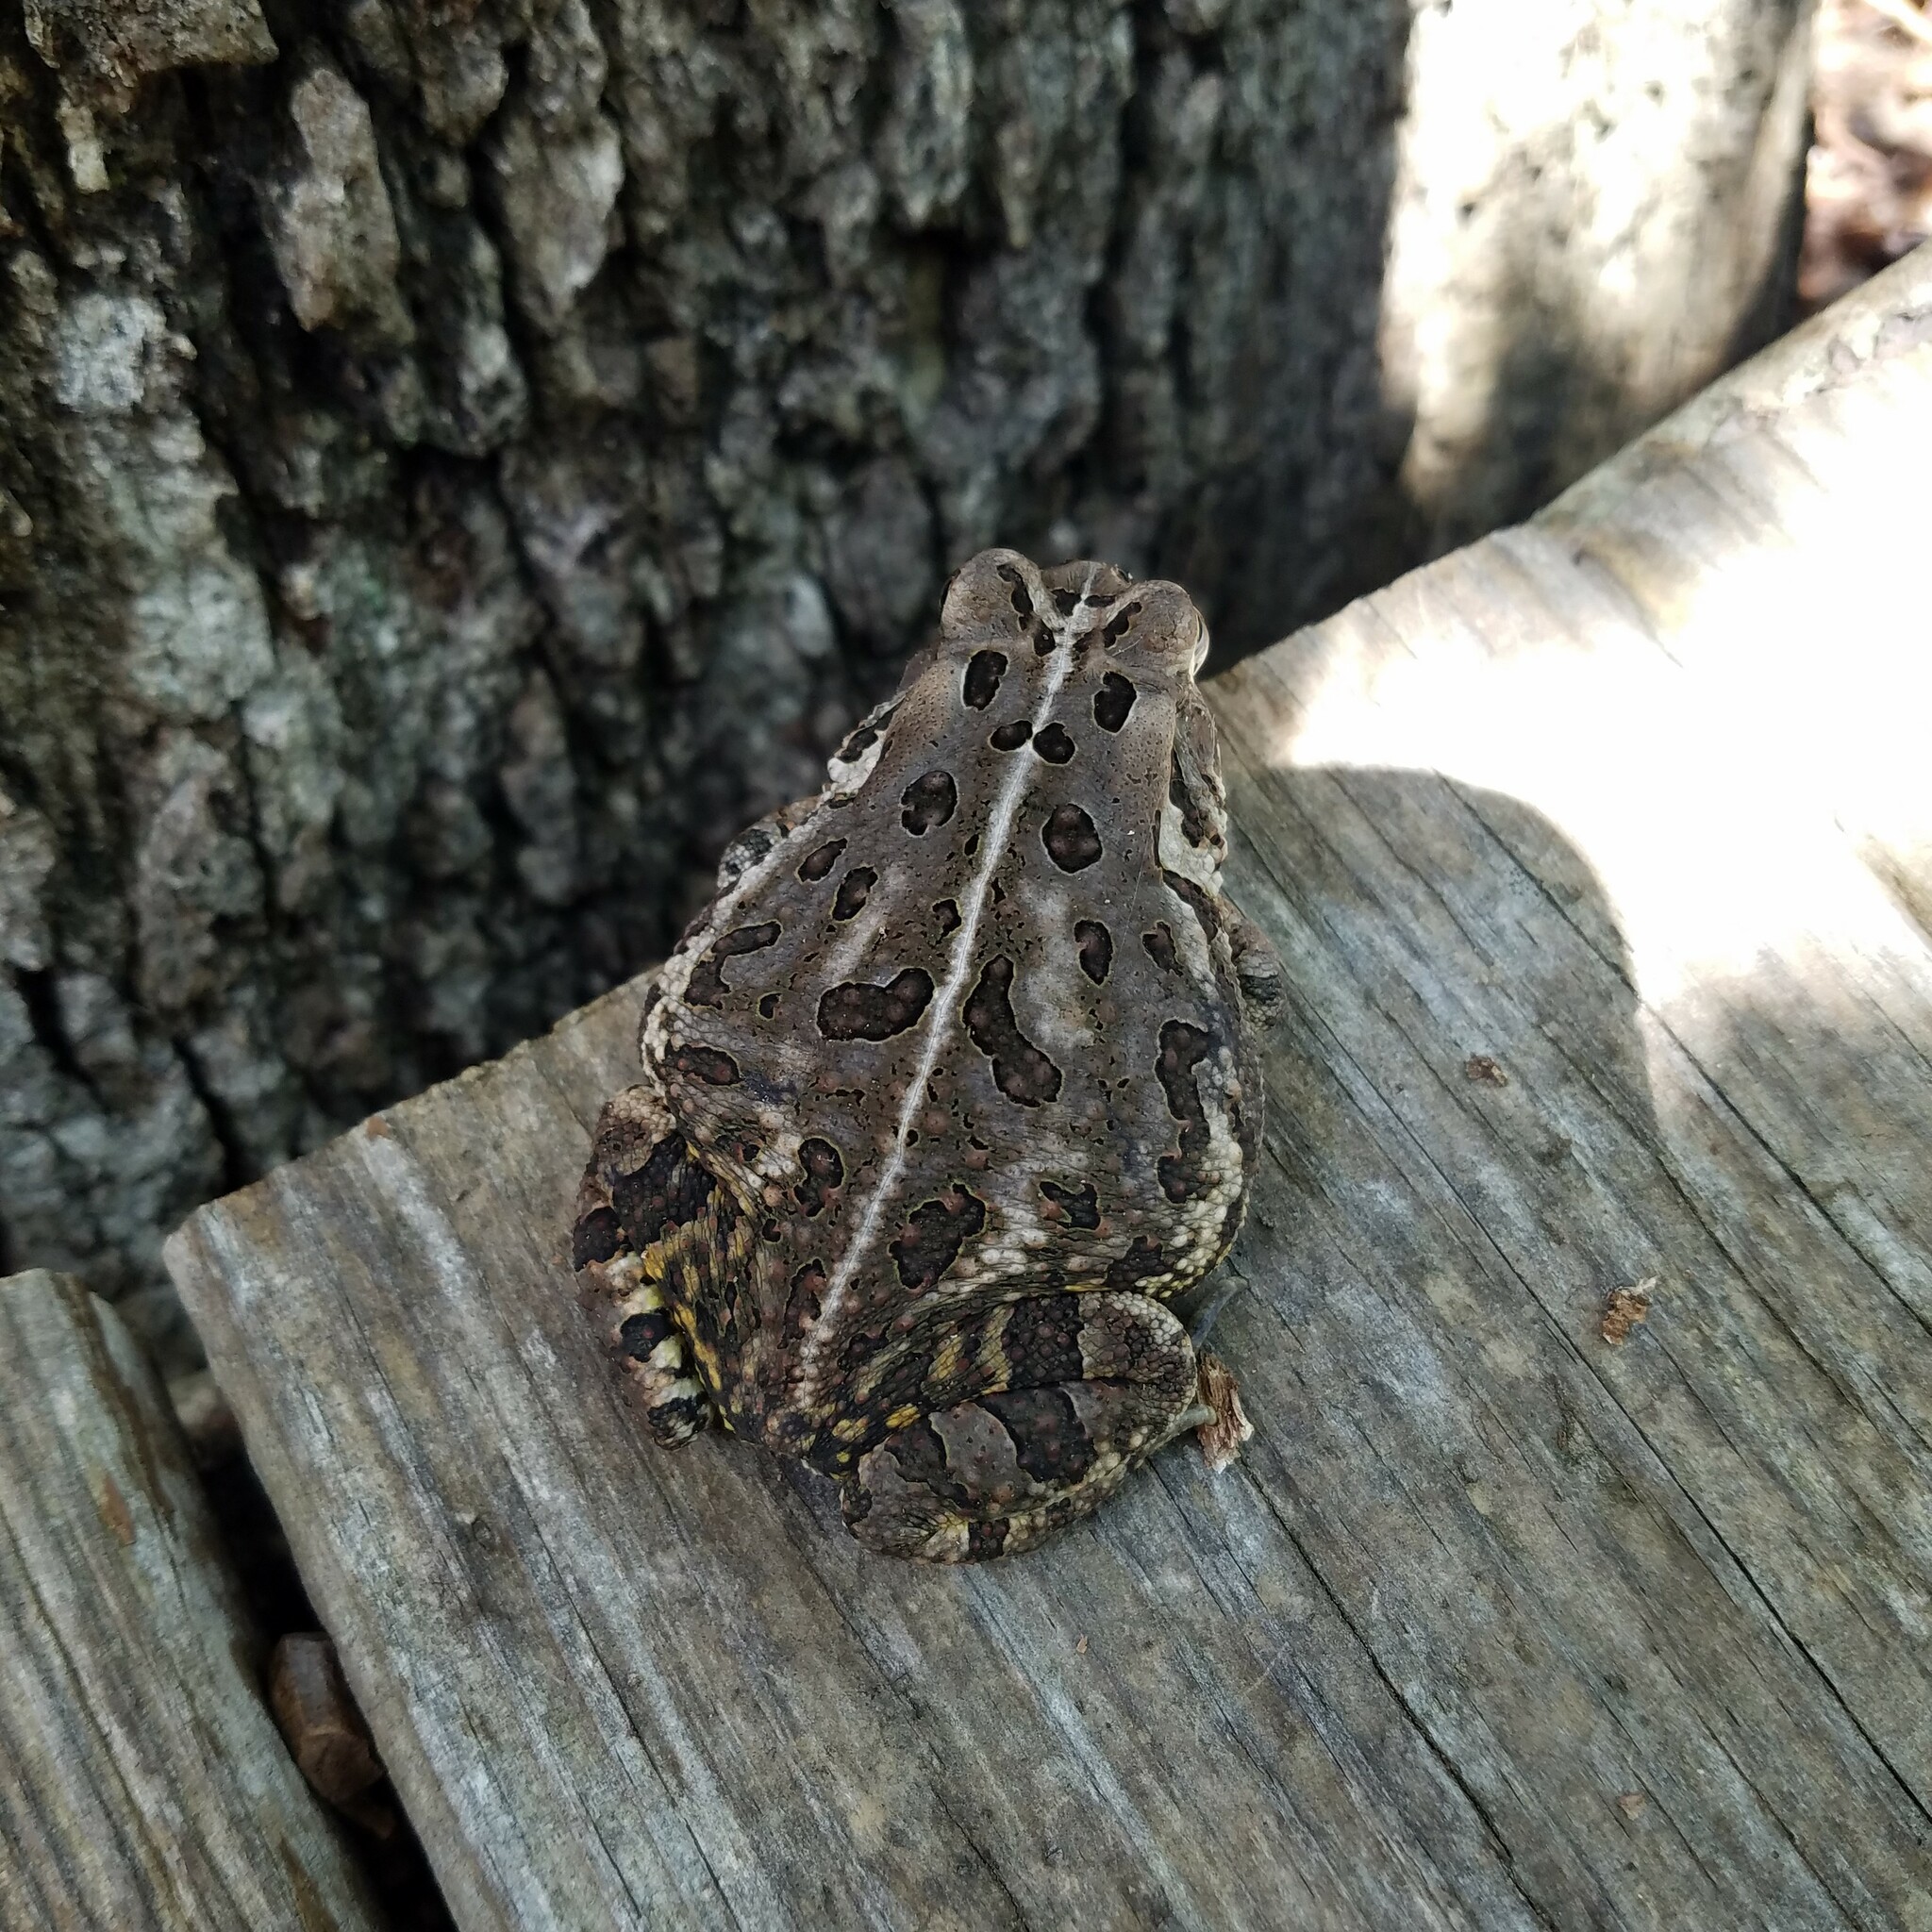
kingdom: Animalia
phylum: Chordata
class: Amphibia
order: Anura
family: Bufonidae
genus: Anaxyrus
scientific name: Anaxyrus fowleri
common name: Fowler's toad
